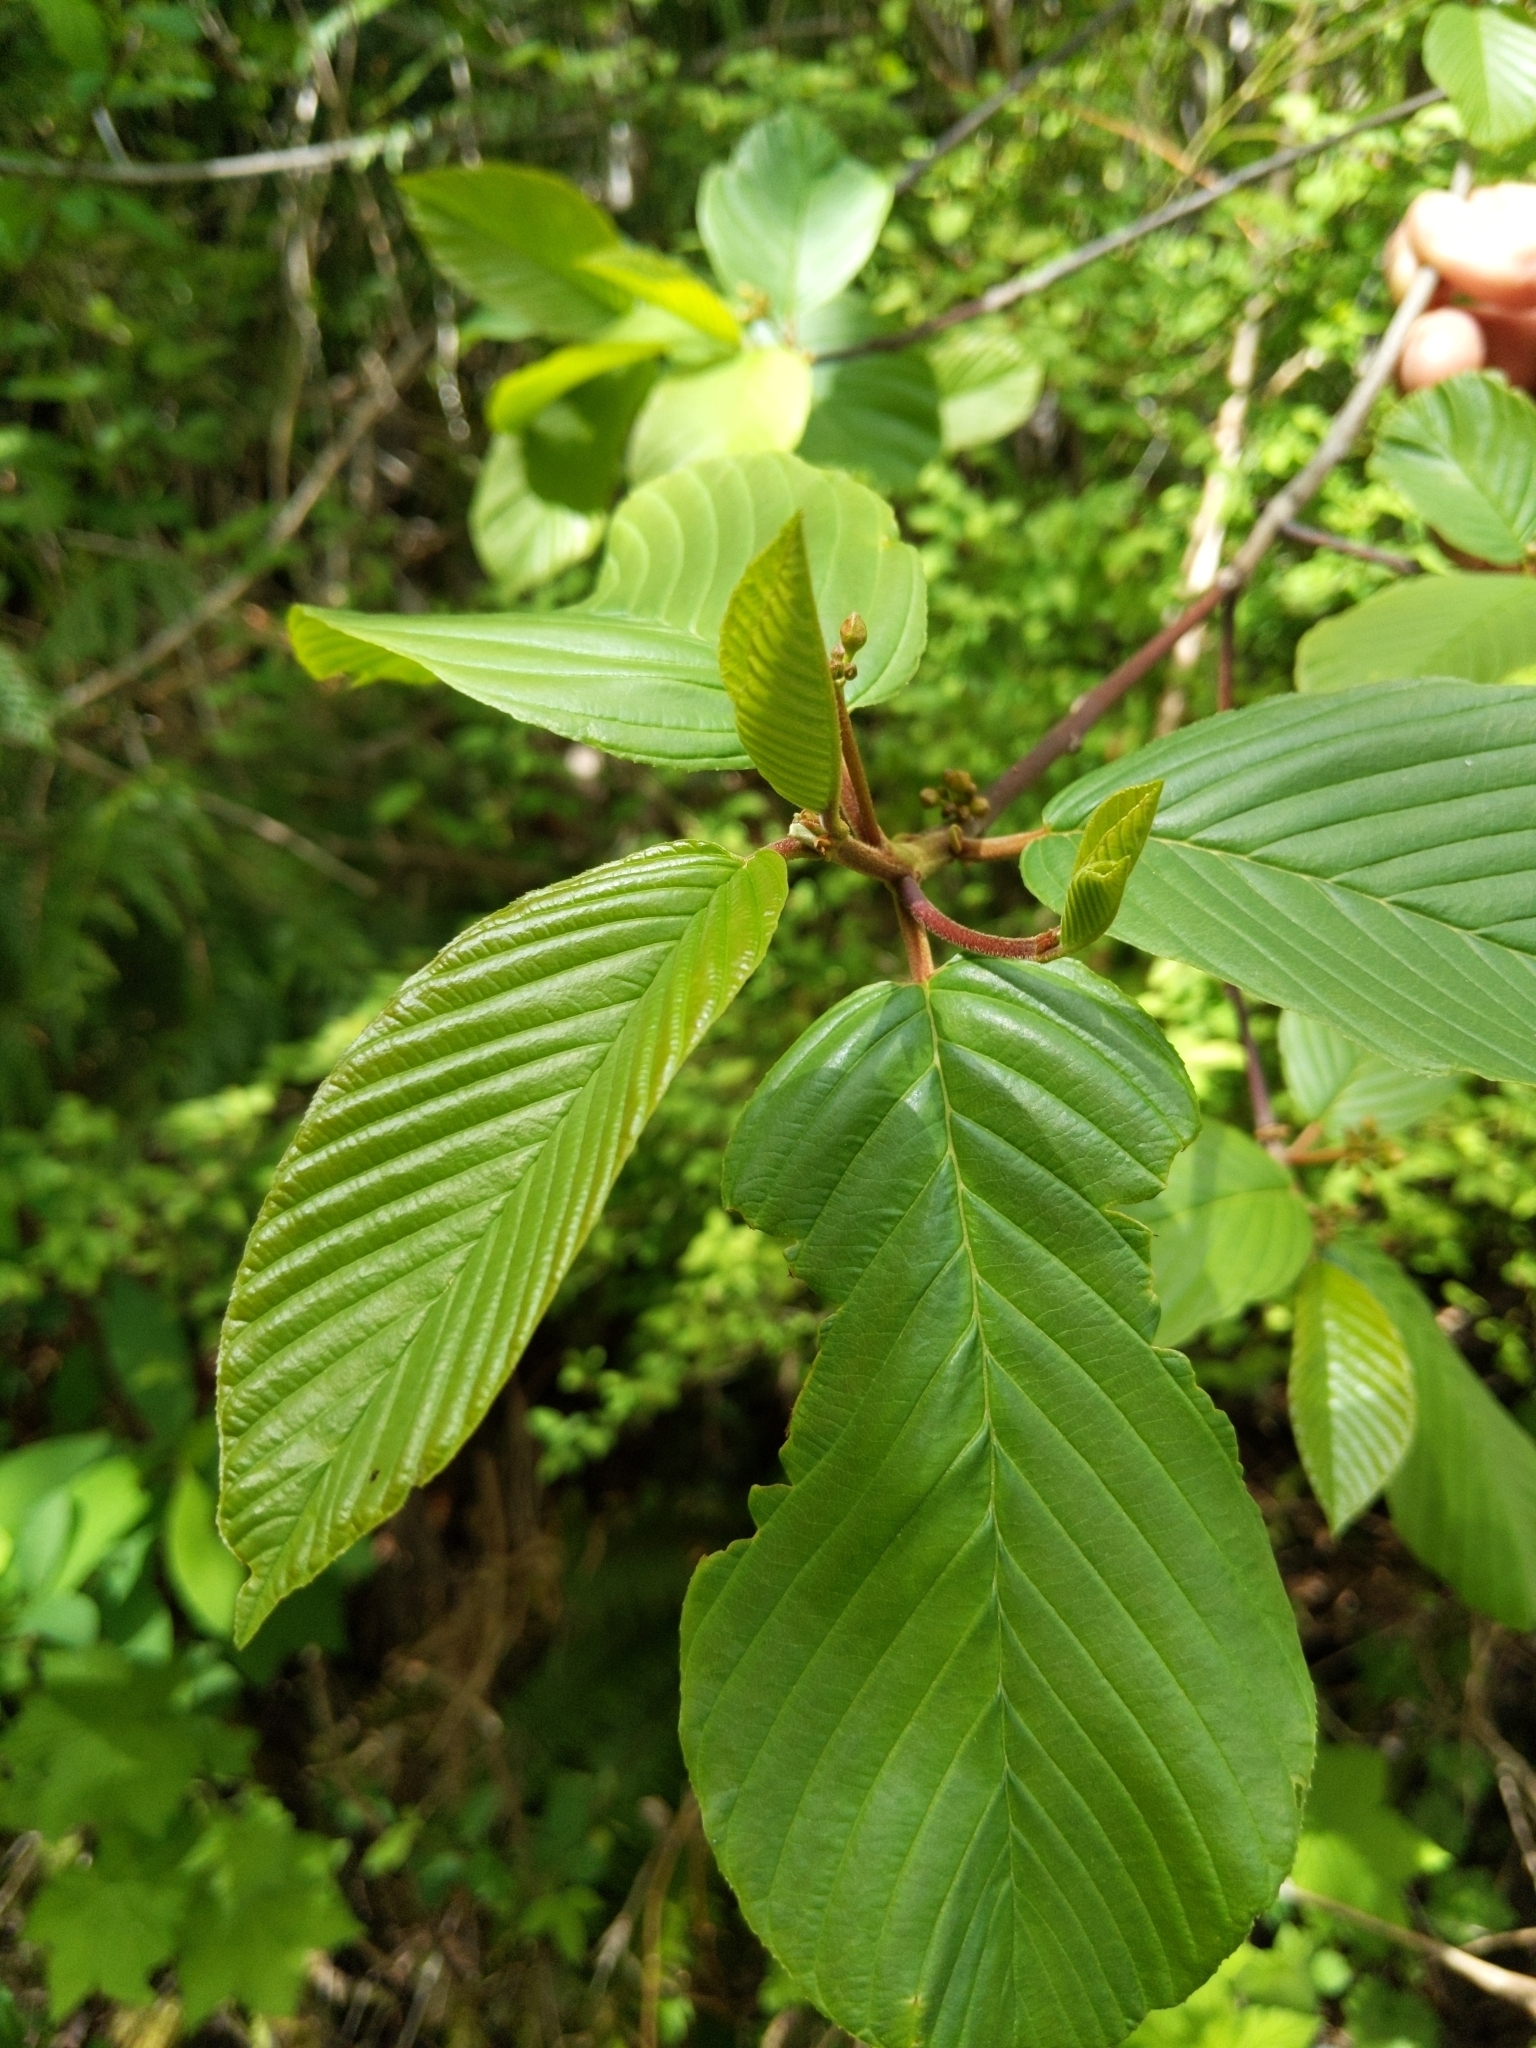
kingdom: Plantae
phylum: Tracheophyta
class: Magnoliopsida
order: Rosales
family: Rhamnaceae
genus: Frangula
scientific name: Frangula purshiana
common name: Cascara buckthorn
